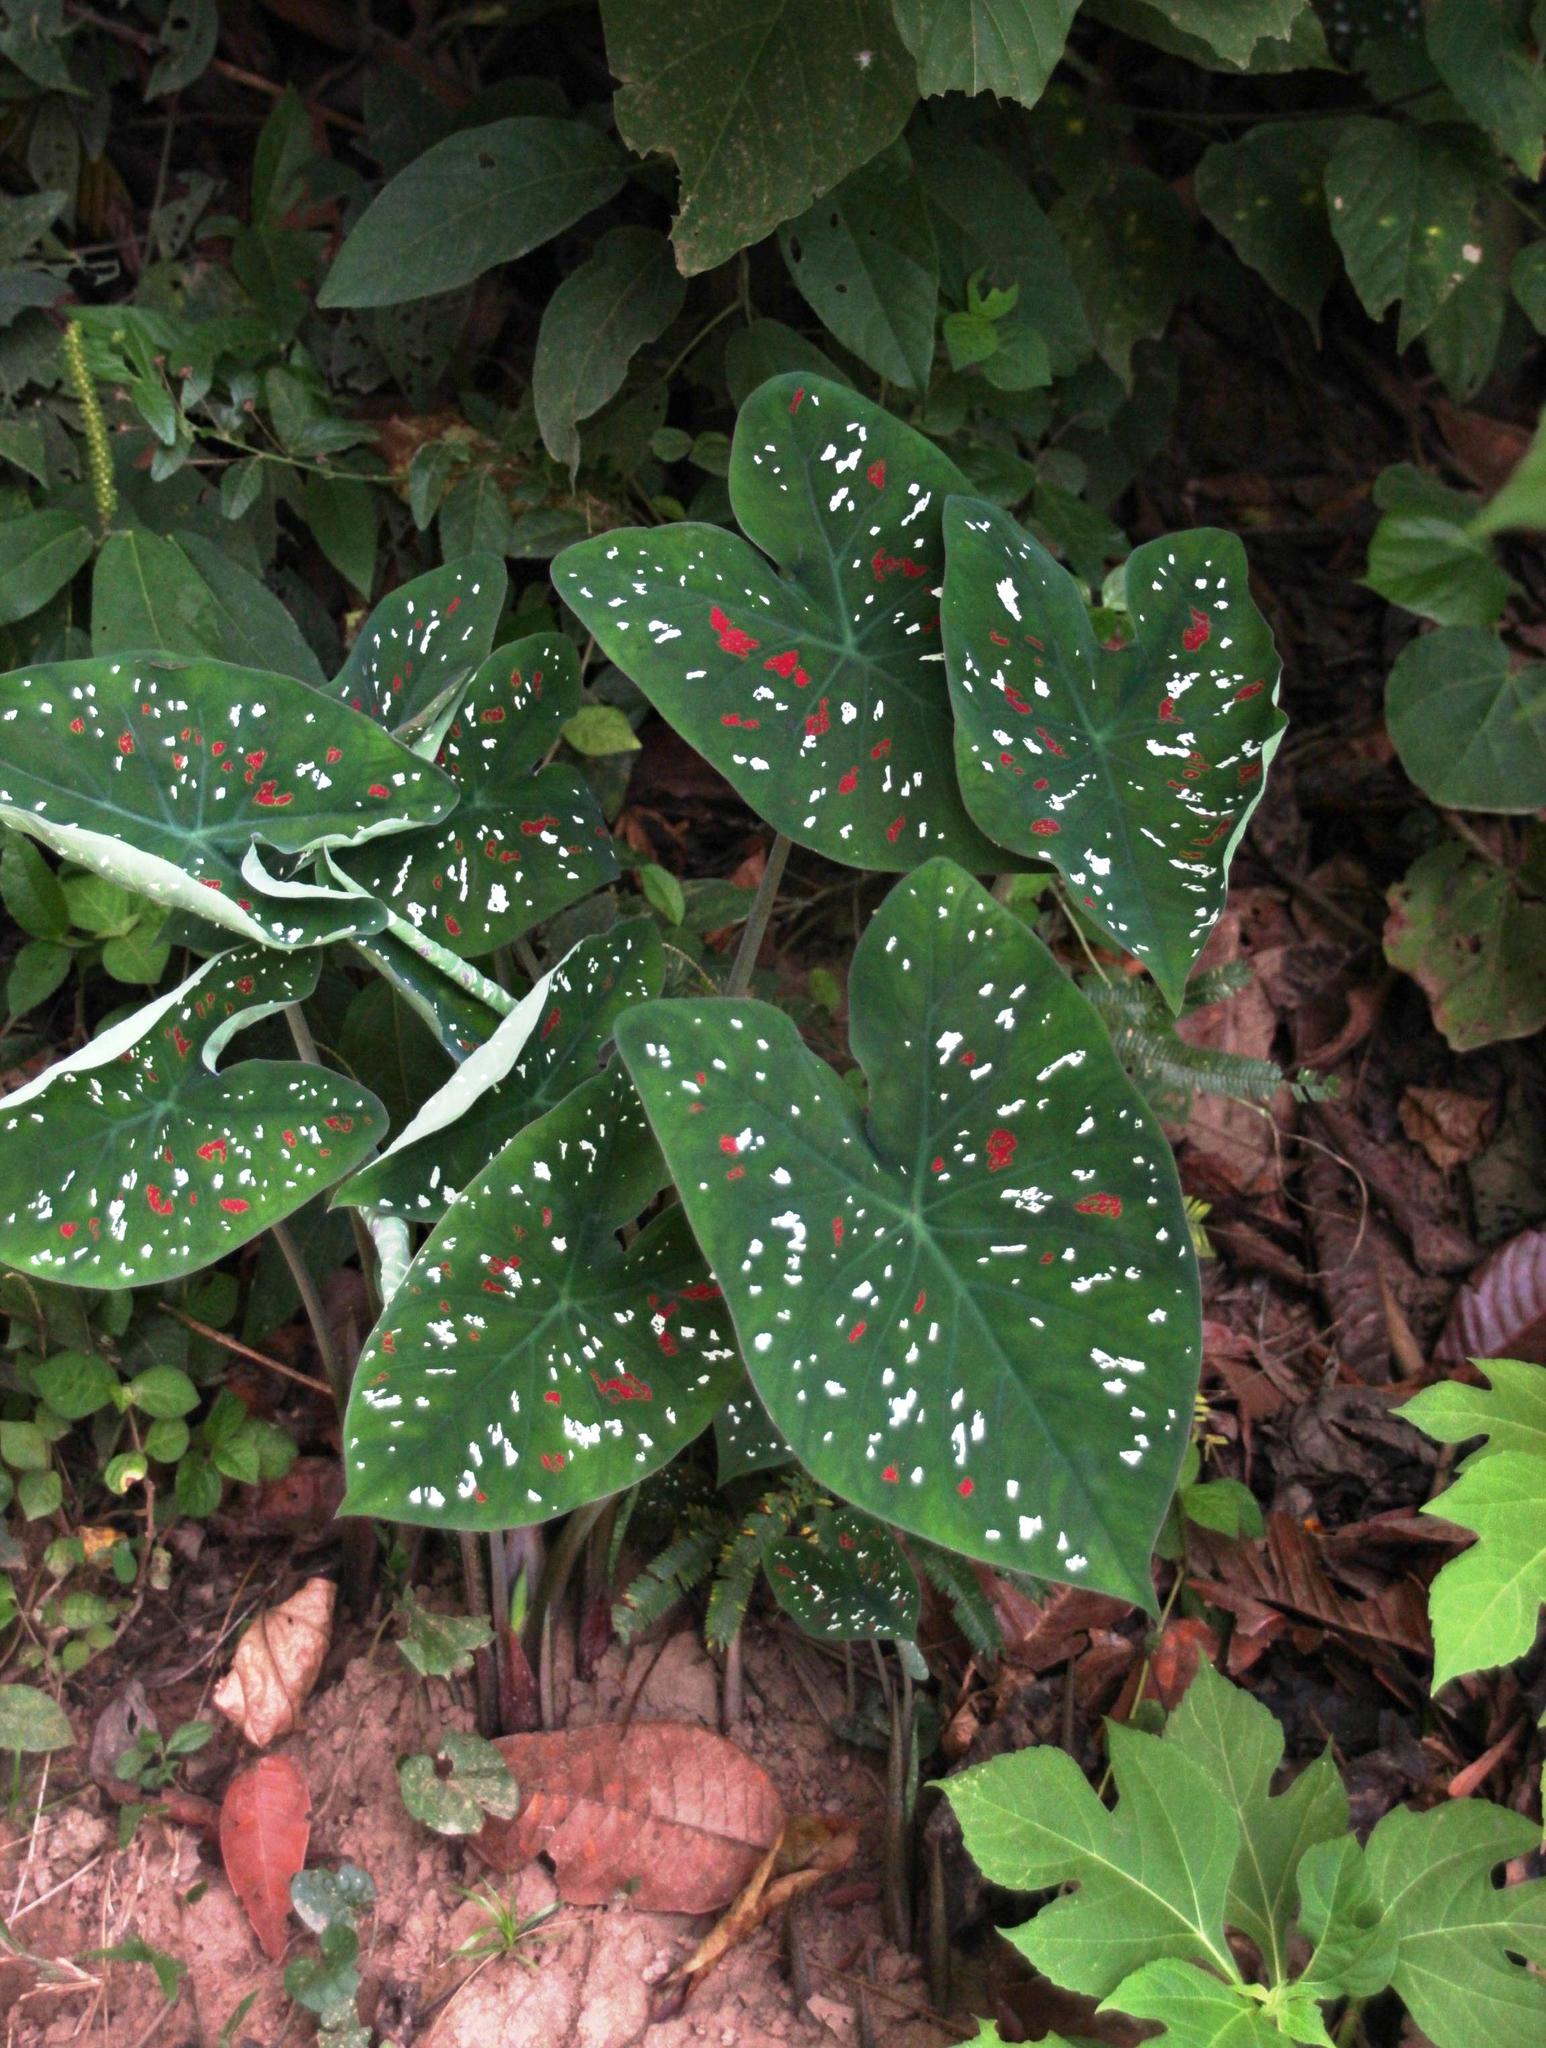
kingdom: Plantae
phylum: Tracheophyta
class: Liliopsida
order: Alismatales
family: Araceae
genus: Caladium
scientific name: Caladium bicolor
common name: Artist's pallet
